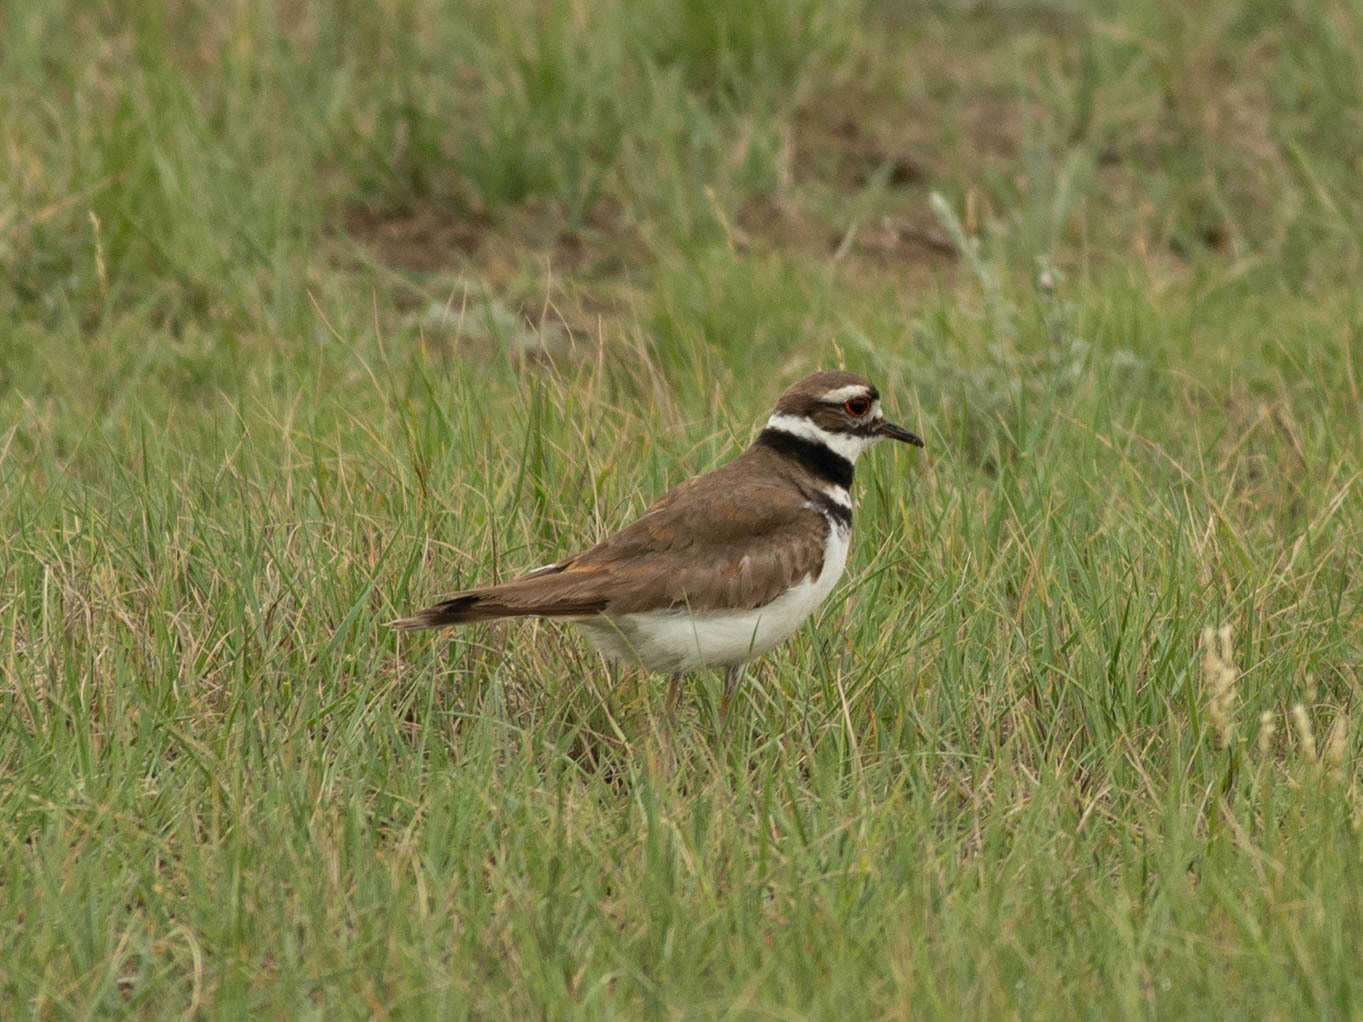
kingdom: Animalia
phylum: Chordata
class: Aves
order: Charadriiformes
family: Charadriidae
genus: Charadrius
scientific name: Charadrius vociferus
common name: Killdeer
